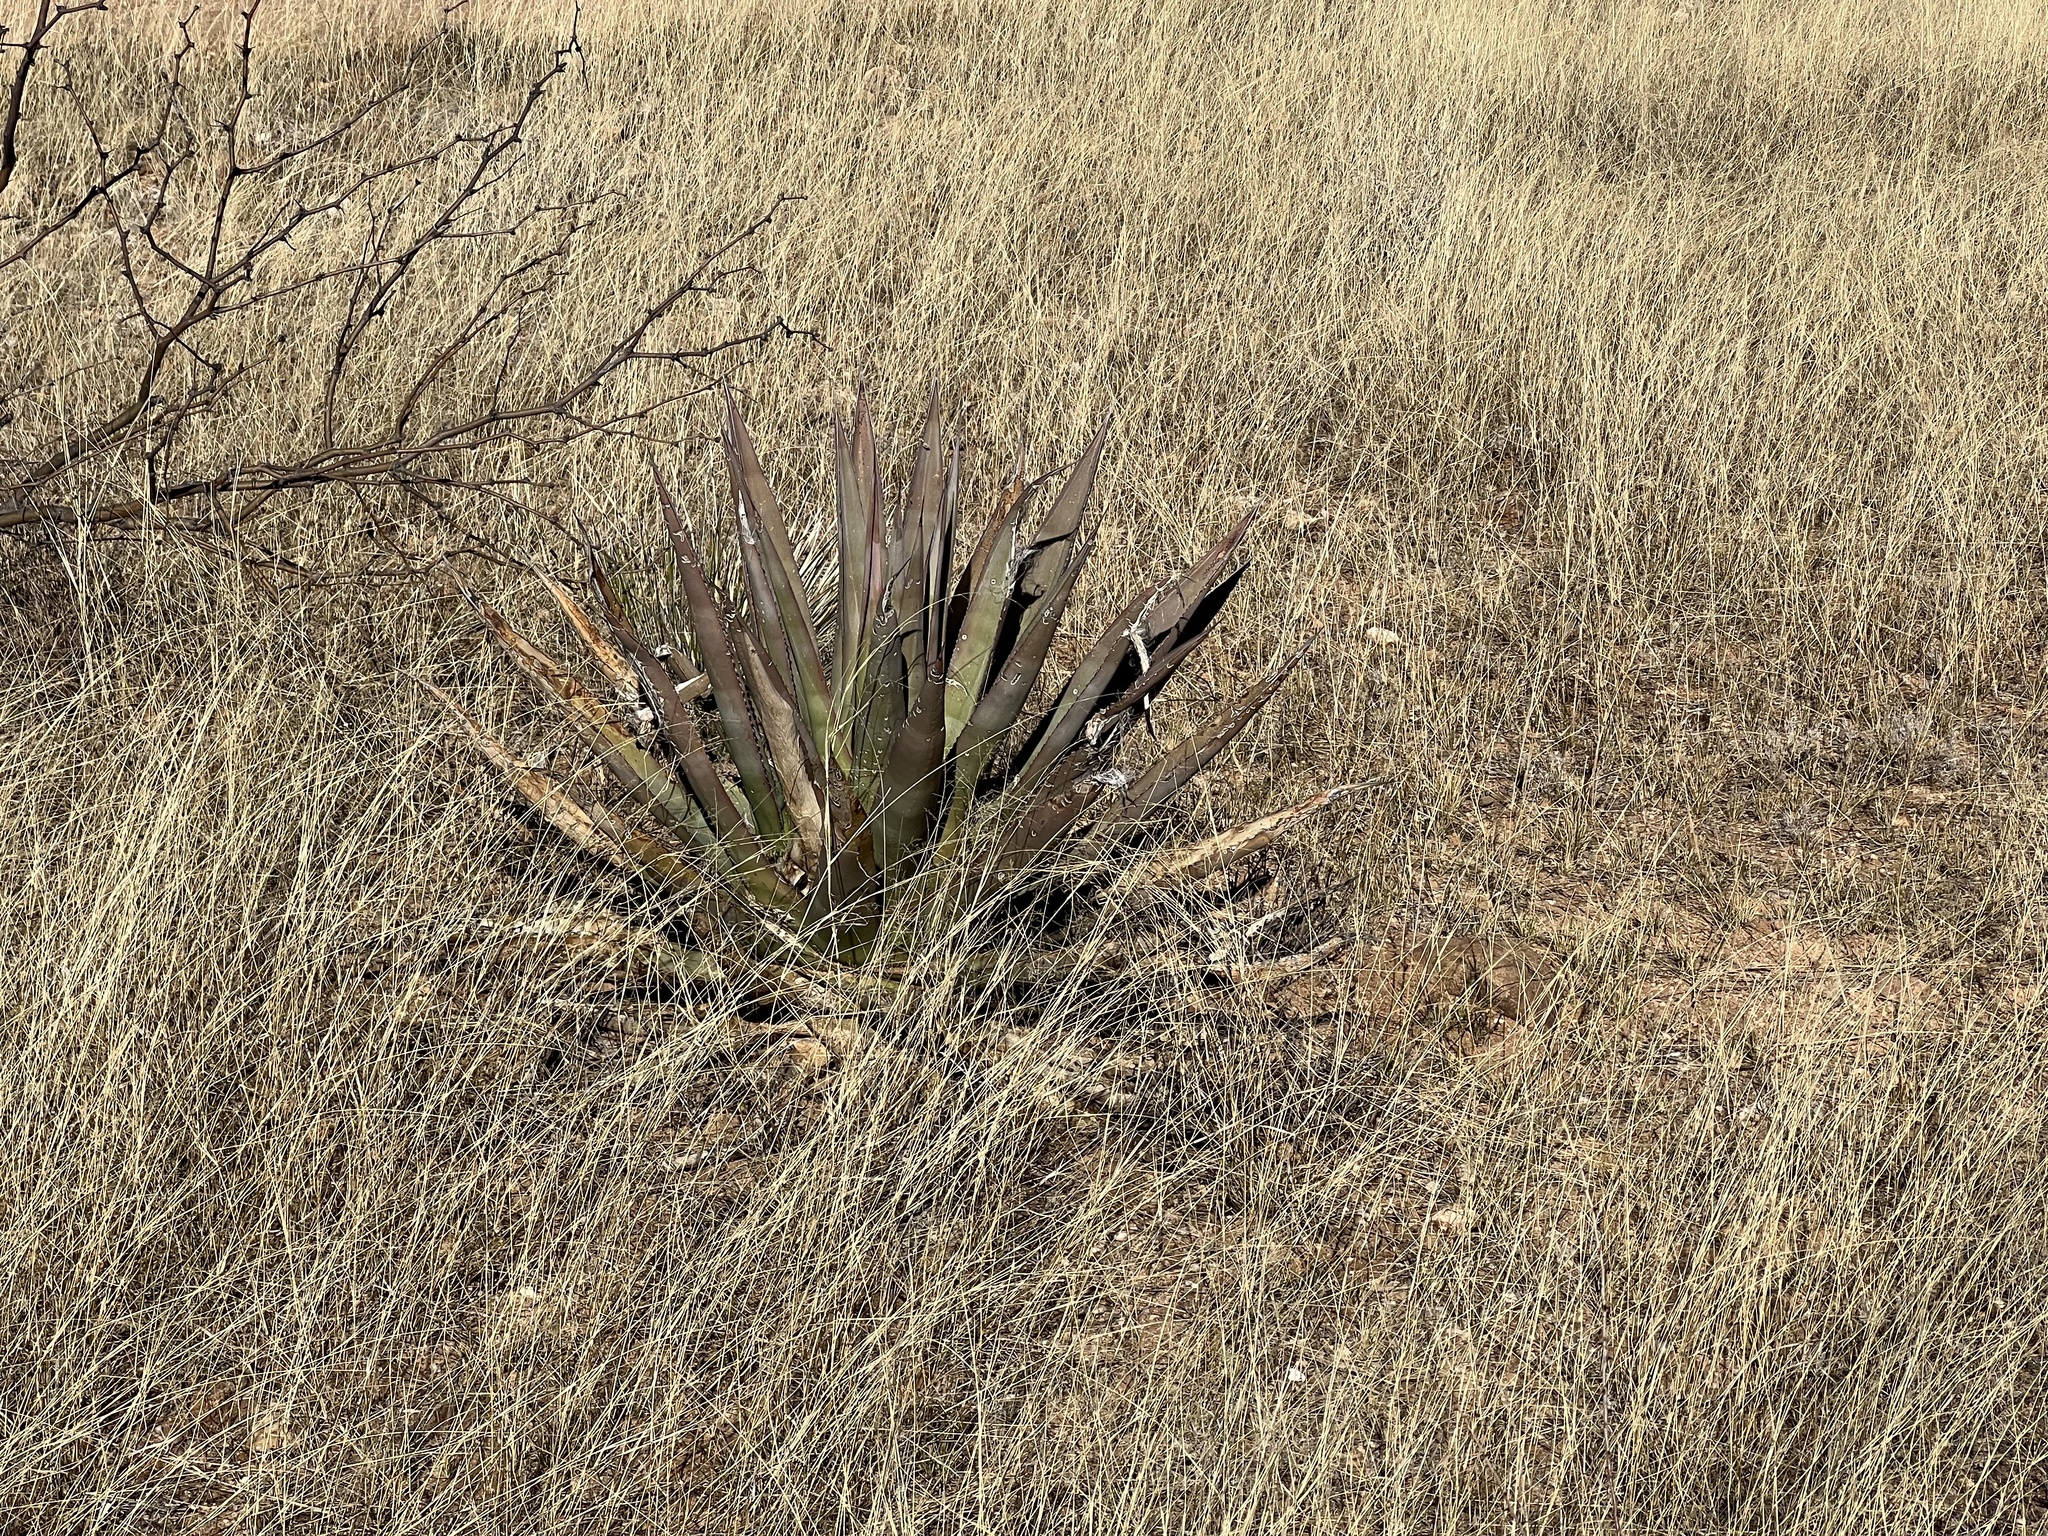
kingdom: Plantae
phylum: Tracheophyta
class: Liliopsida
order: Asparagales
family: Asparagaceae
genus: Agave
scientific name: Agave palmeri
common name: Palmer agave
